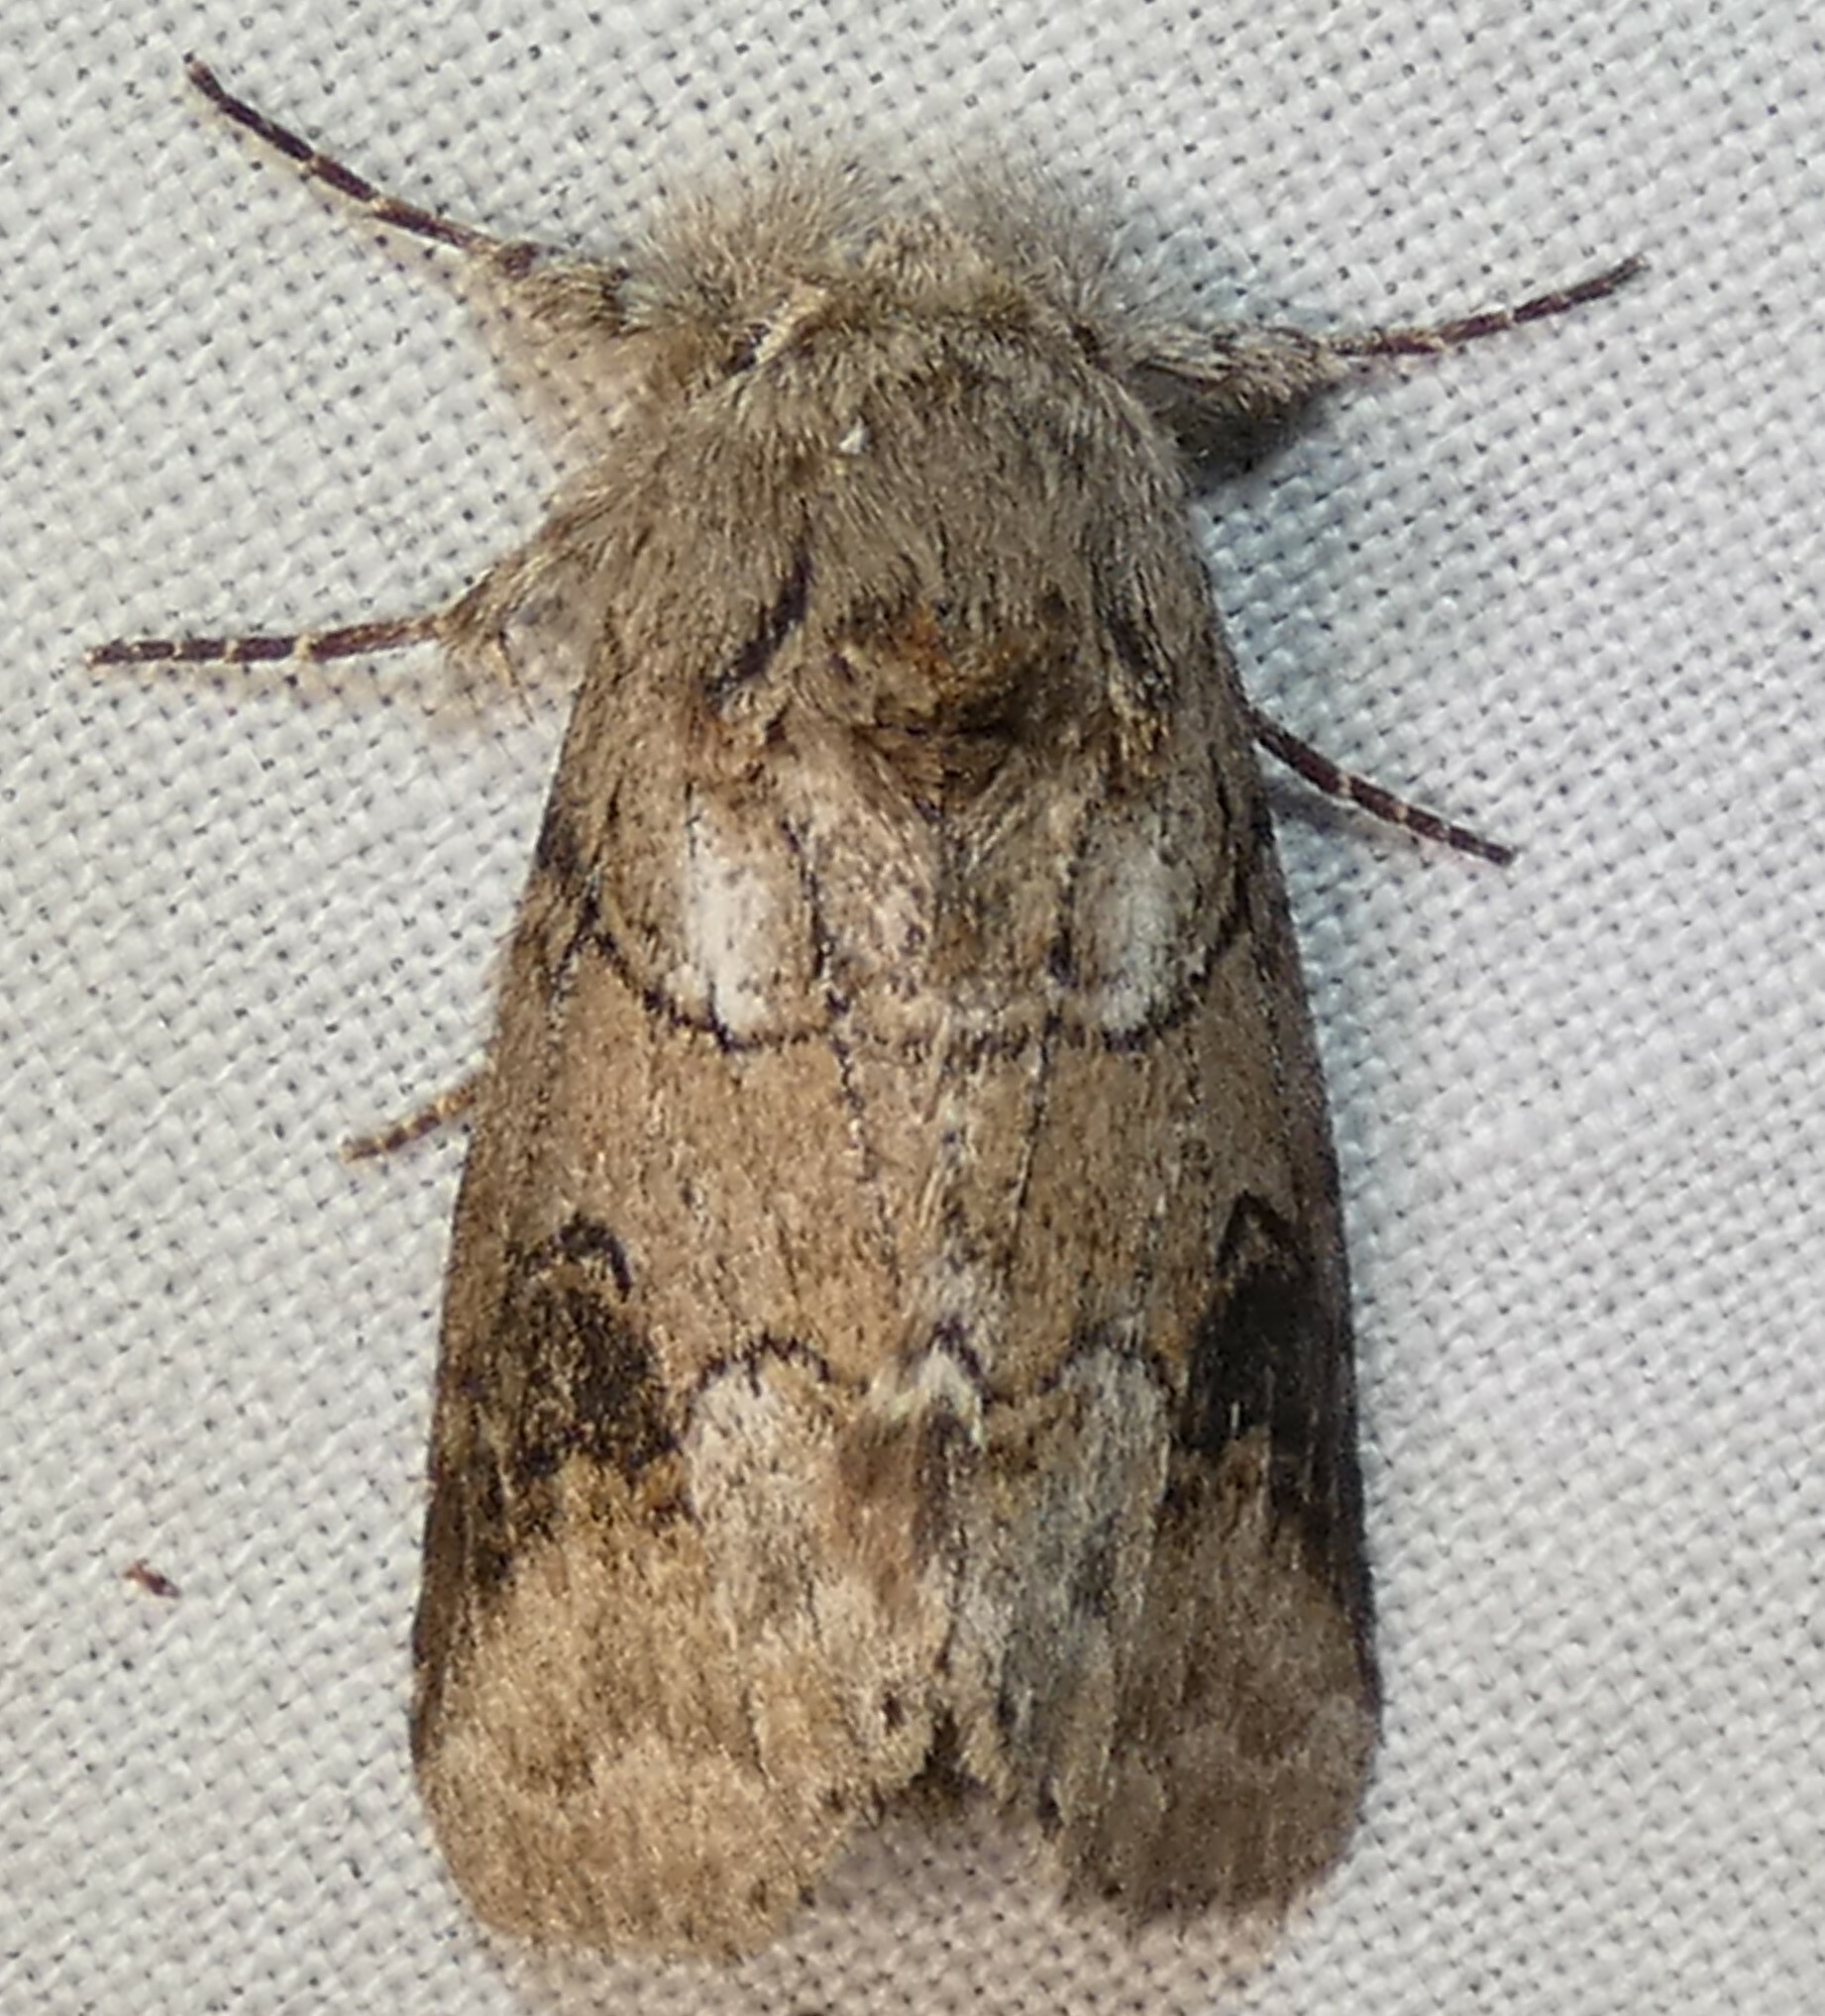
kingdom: Animalia
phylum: Arthropoda
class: Insecta
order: Lepidoptera
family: Notodontidae
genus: Lochmaeus
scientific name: Lochmaeus bilineata
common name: Double-lined prominent
